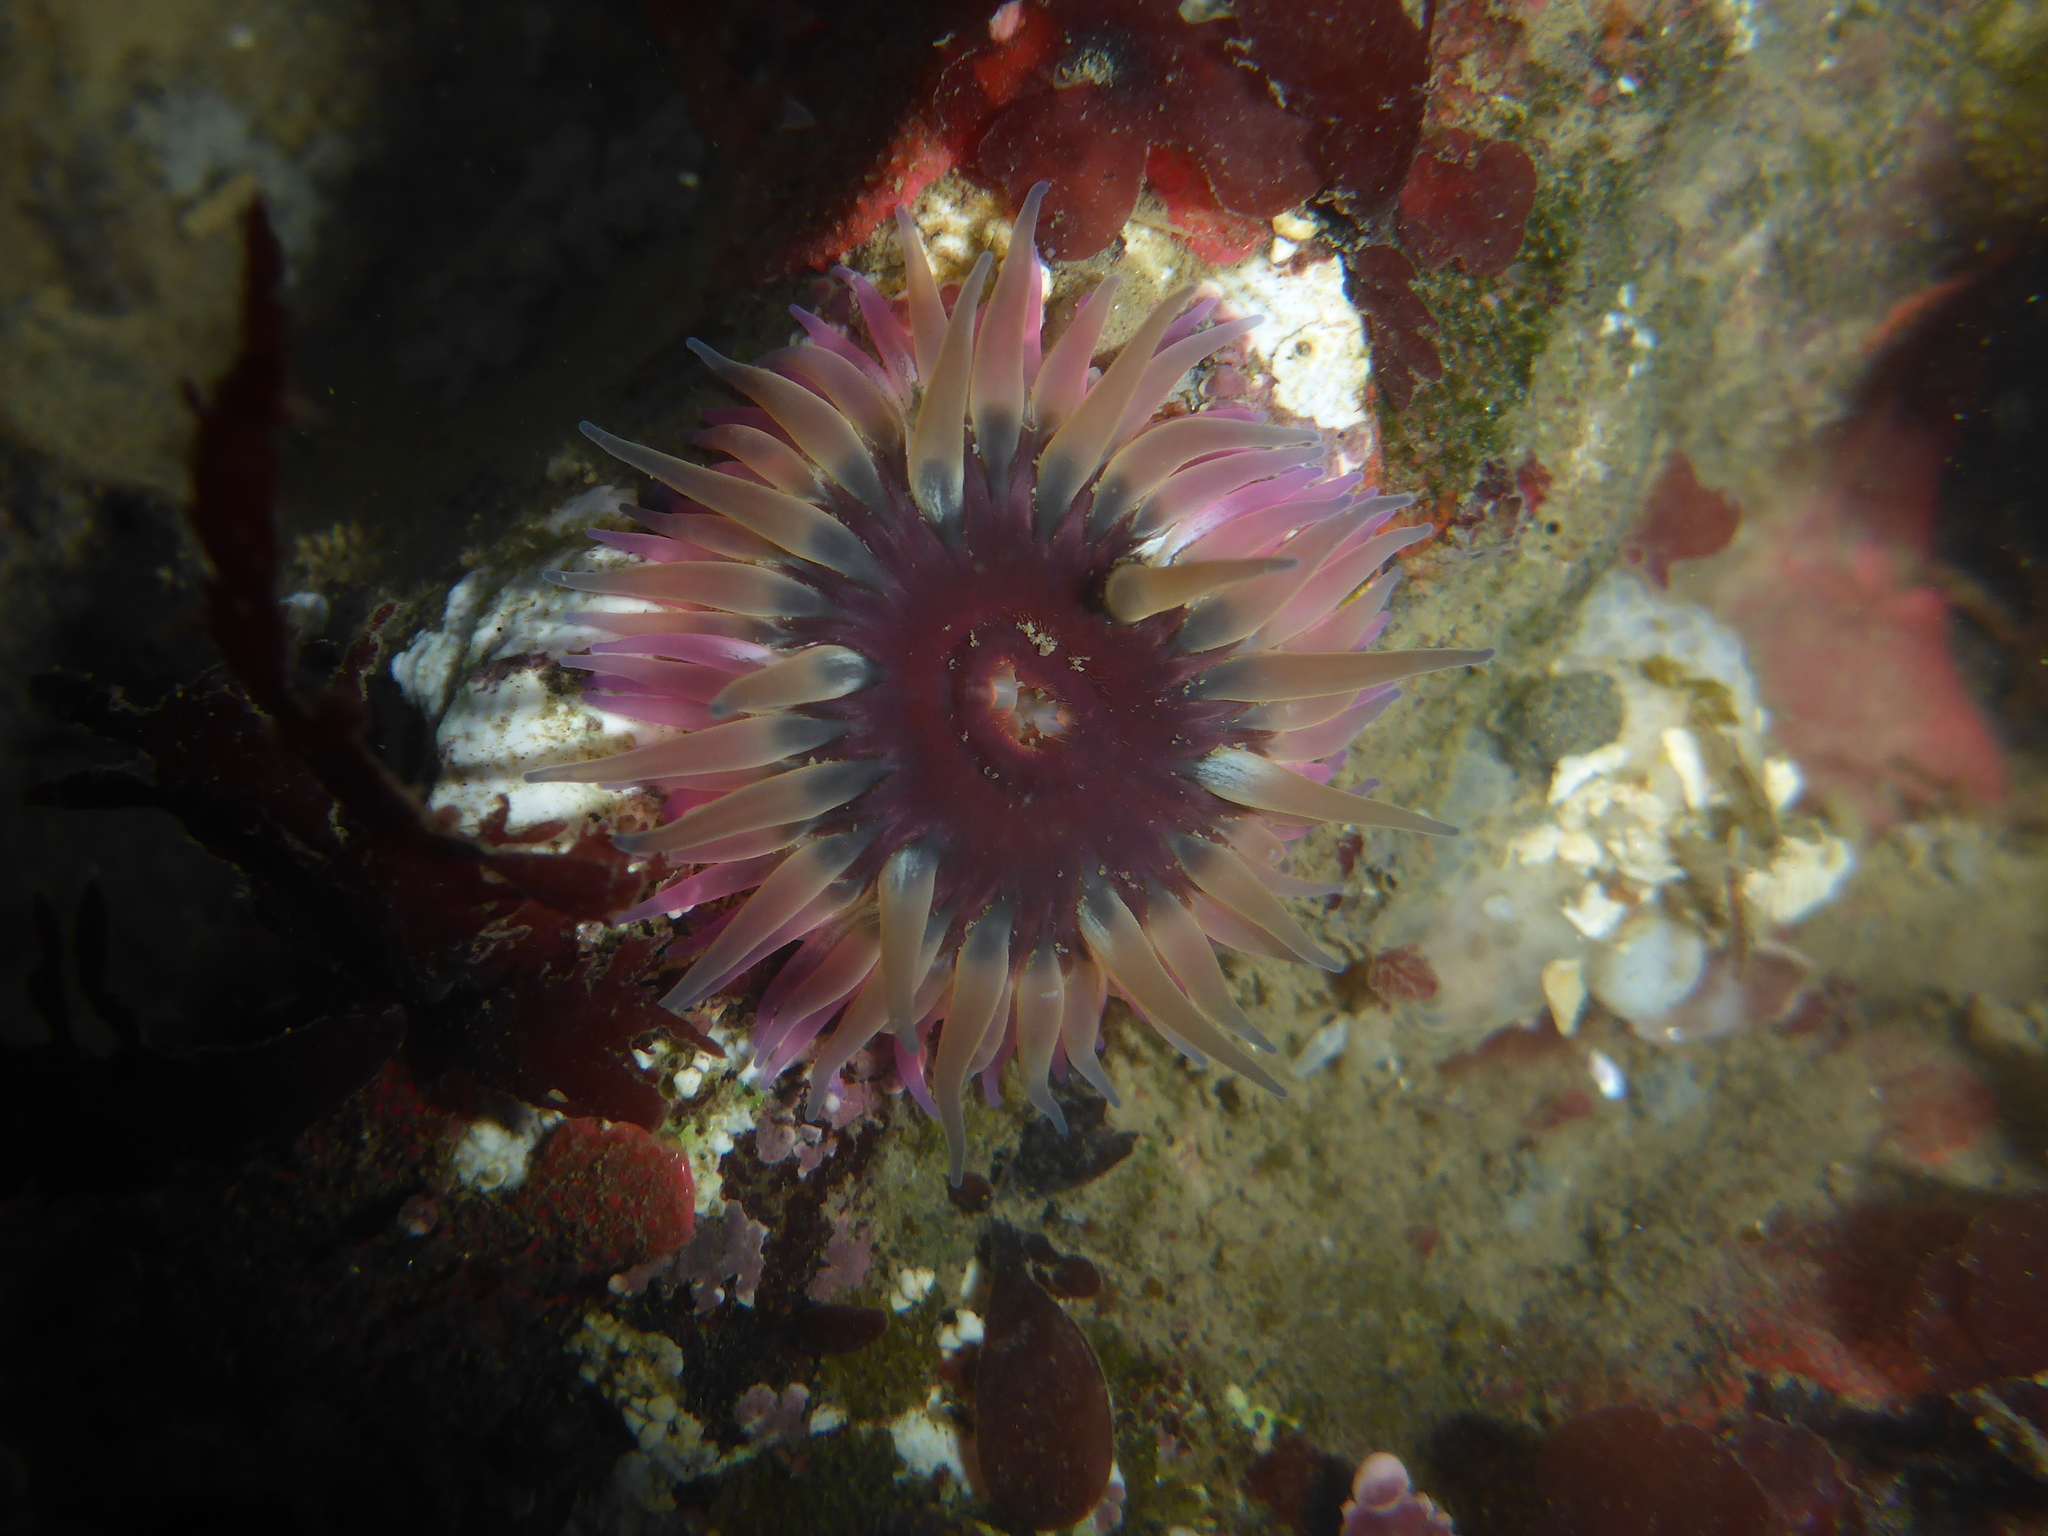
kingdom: Animalia
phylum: Cnidaria
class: Anthozoa
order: Actiniaria
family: Actiniidae
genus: Anthopleura
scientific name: Anthopleura artemisia
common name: Buried sea anemone
